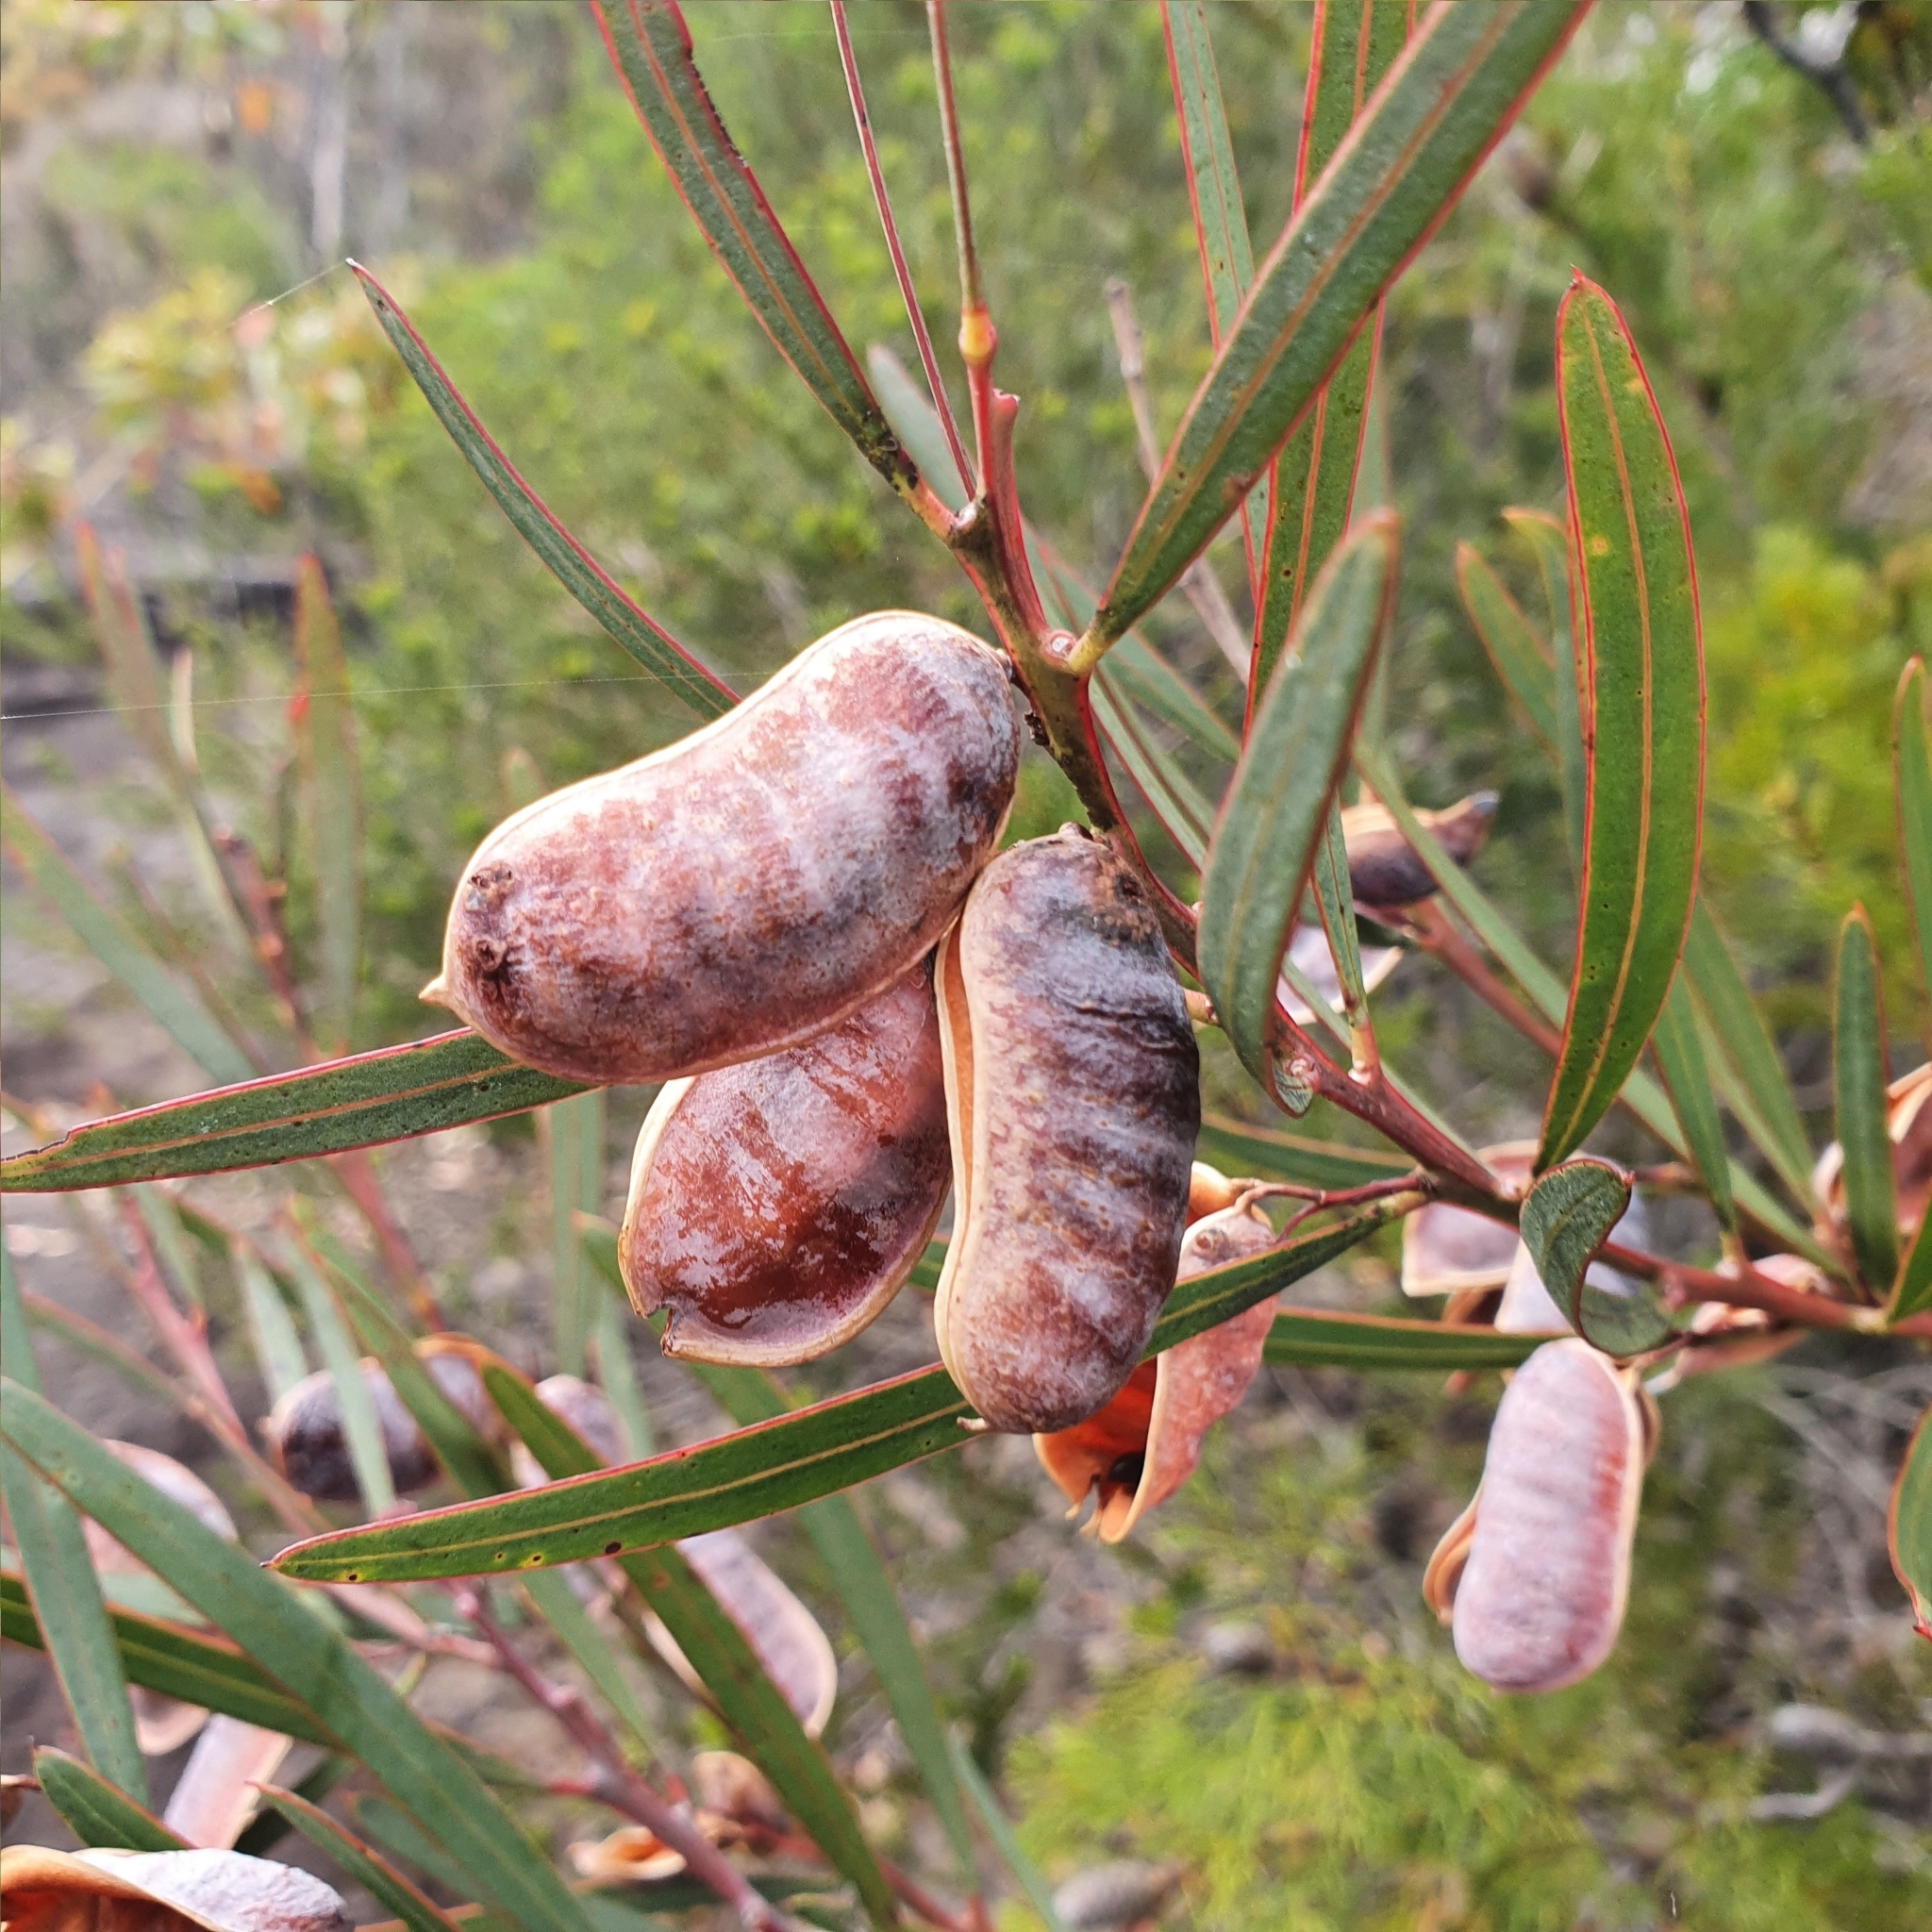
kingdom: Plantae
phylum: Tracheophyta
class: Magnoliopsida
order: Fabales
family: Fabaceae
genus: Acacia
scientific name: Acacia suaveolens
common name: Sweet acacia
